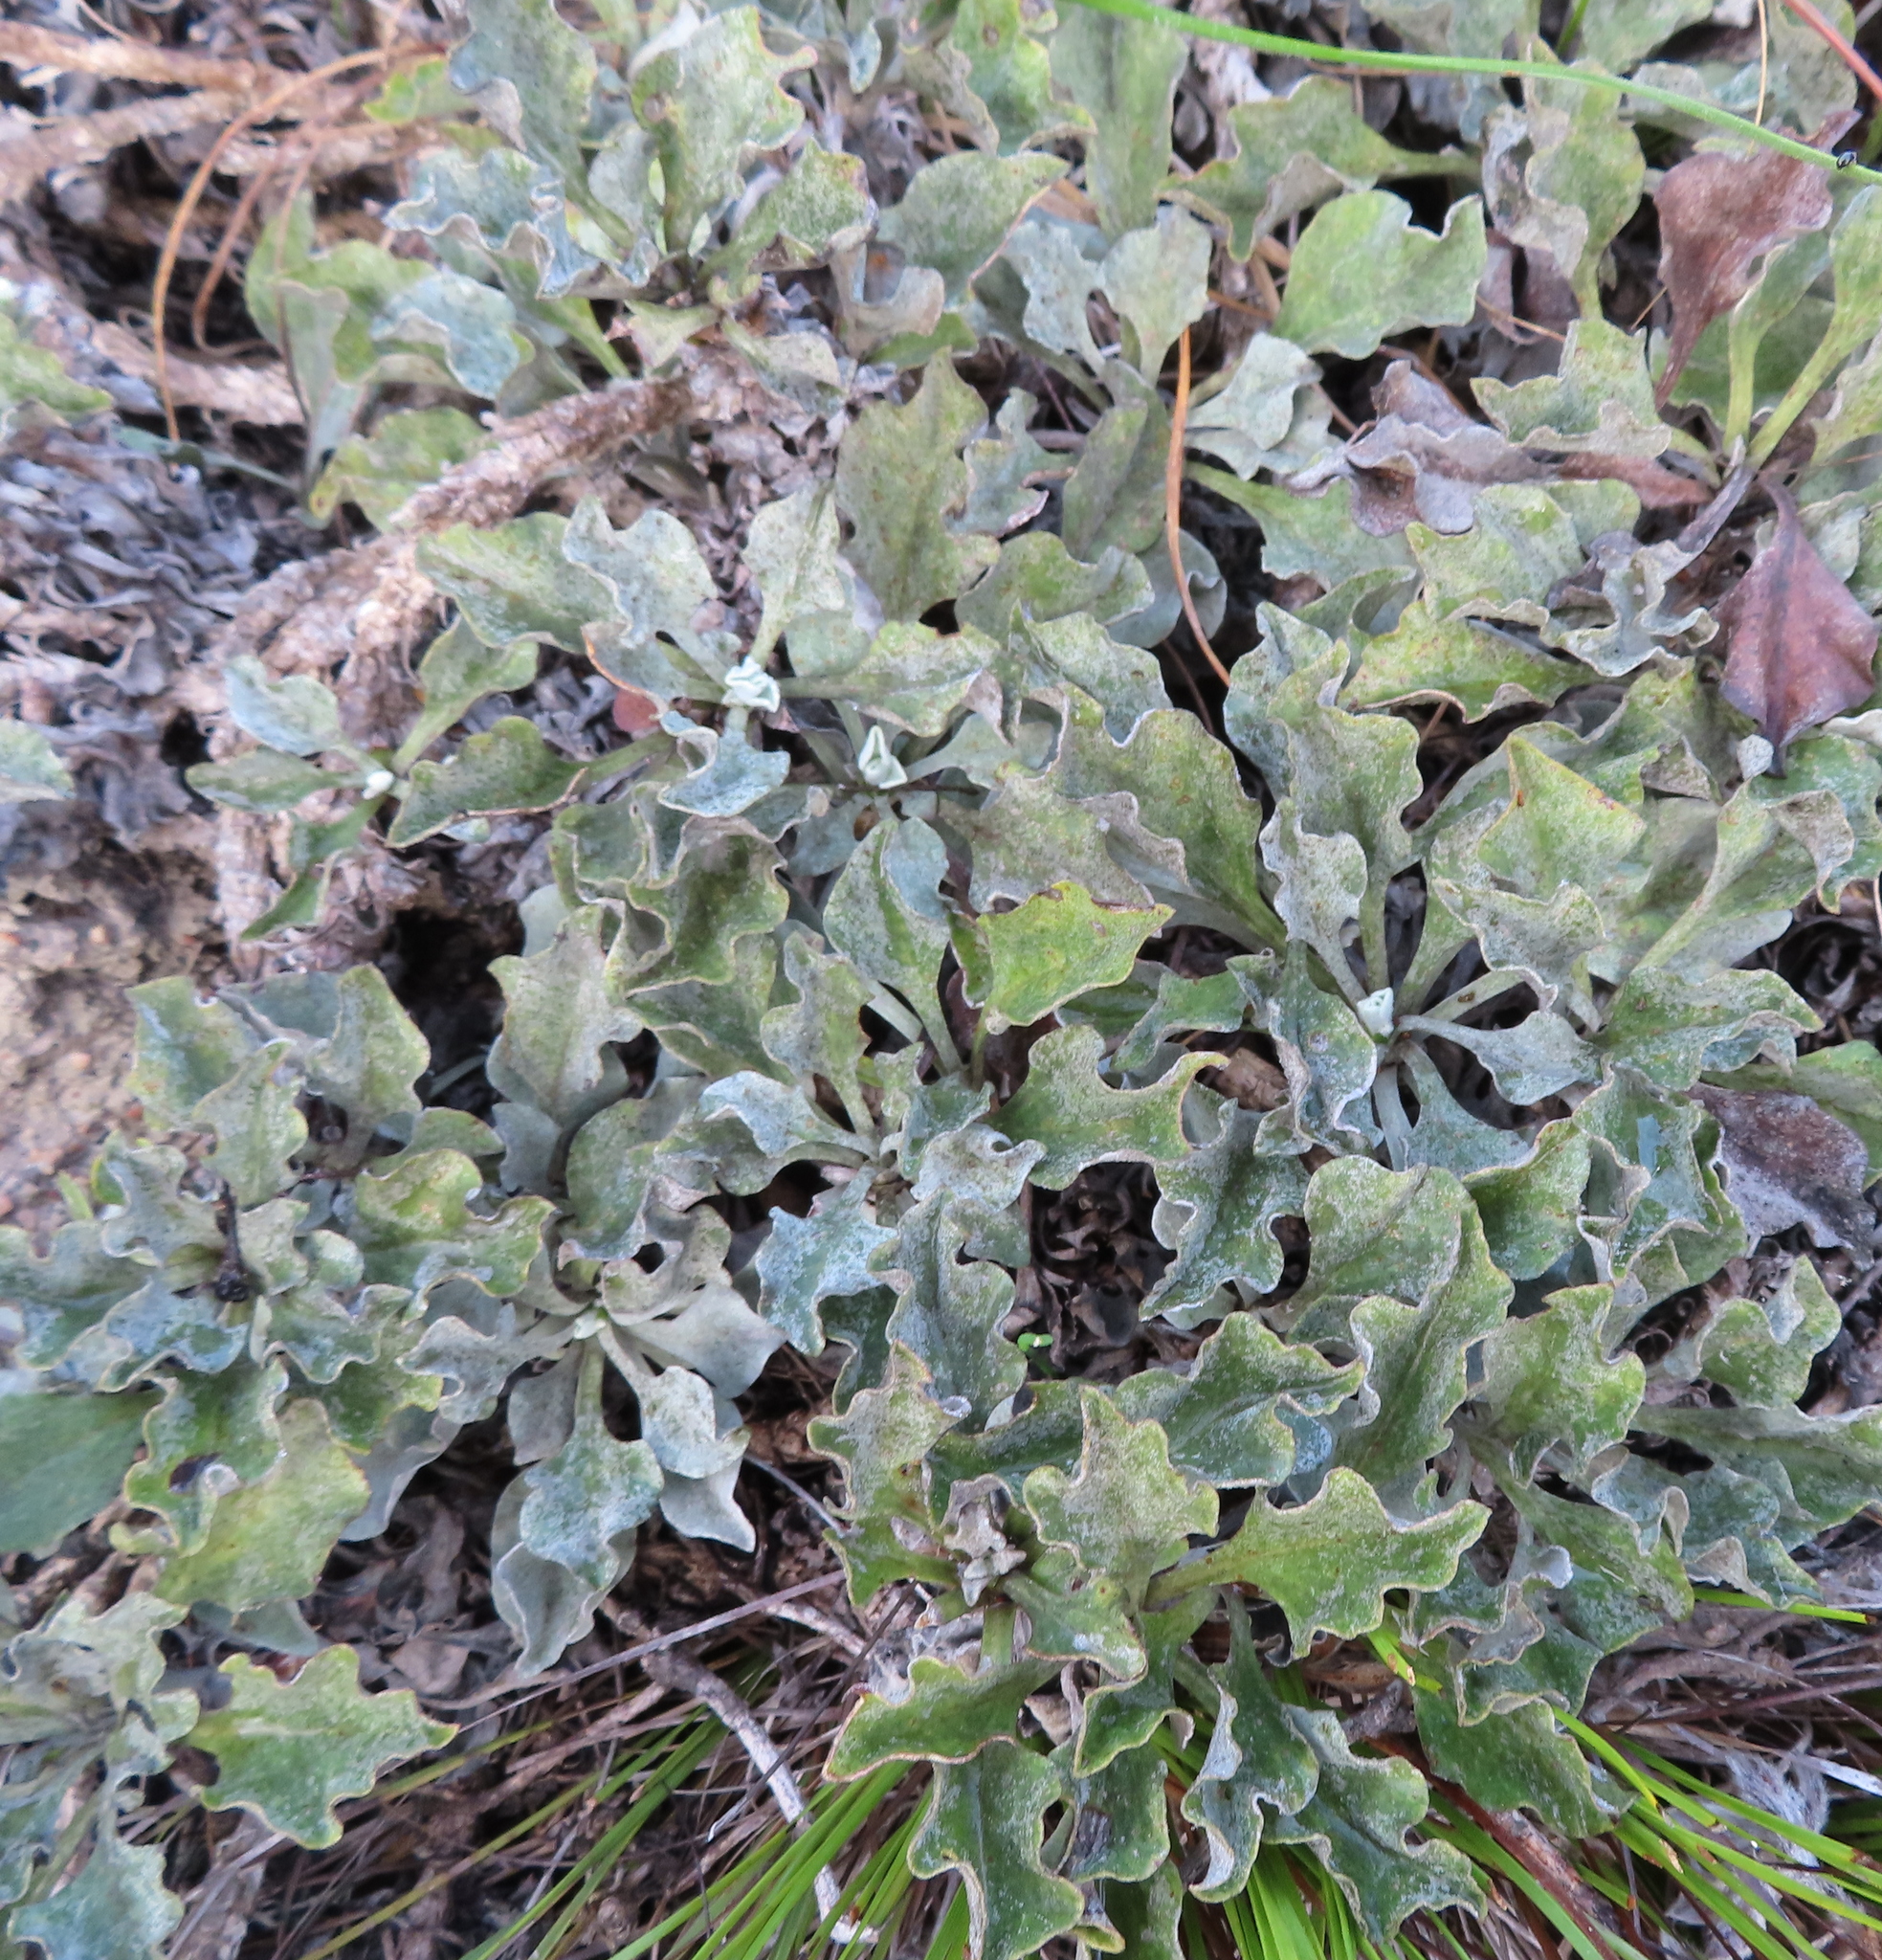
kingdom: Plantae
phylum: Tracheophyta
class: Magnoliopsida
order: Asterales
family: Asteraceae
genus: Osteospermum
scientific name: Osteospermum tomentosum
